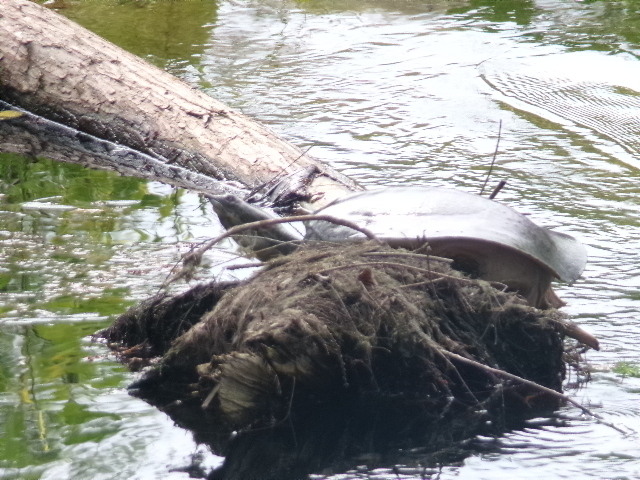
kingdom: Animalia
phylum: Chordata
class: Testudines
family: Trionychidae
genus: Apalone
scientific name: Apalone spinifera
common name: Spiny softshell turtle
